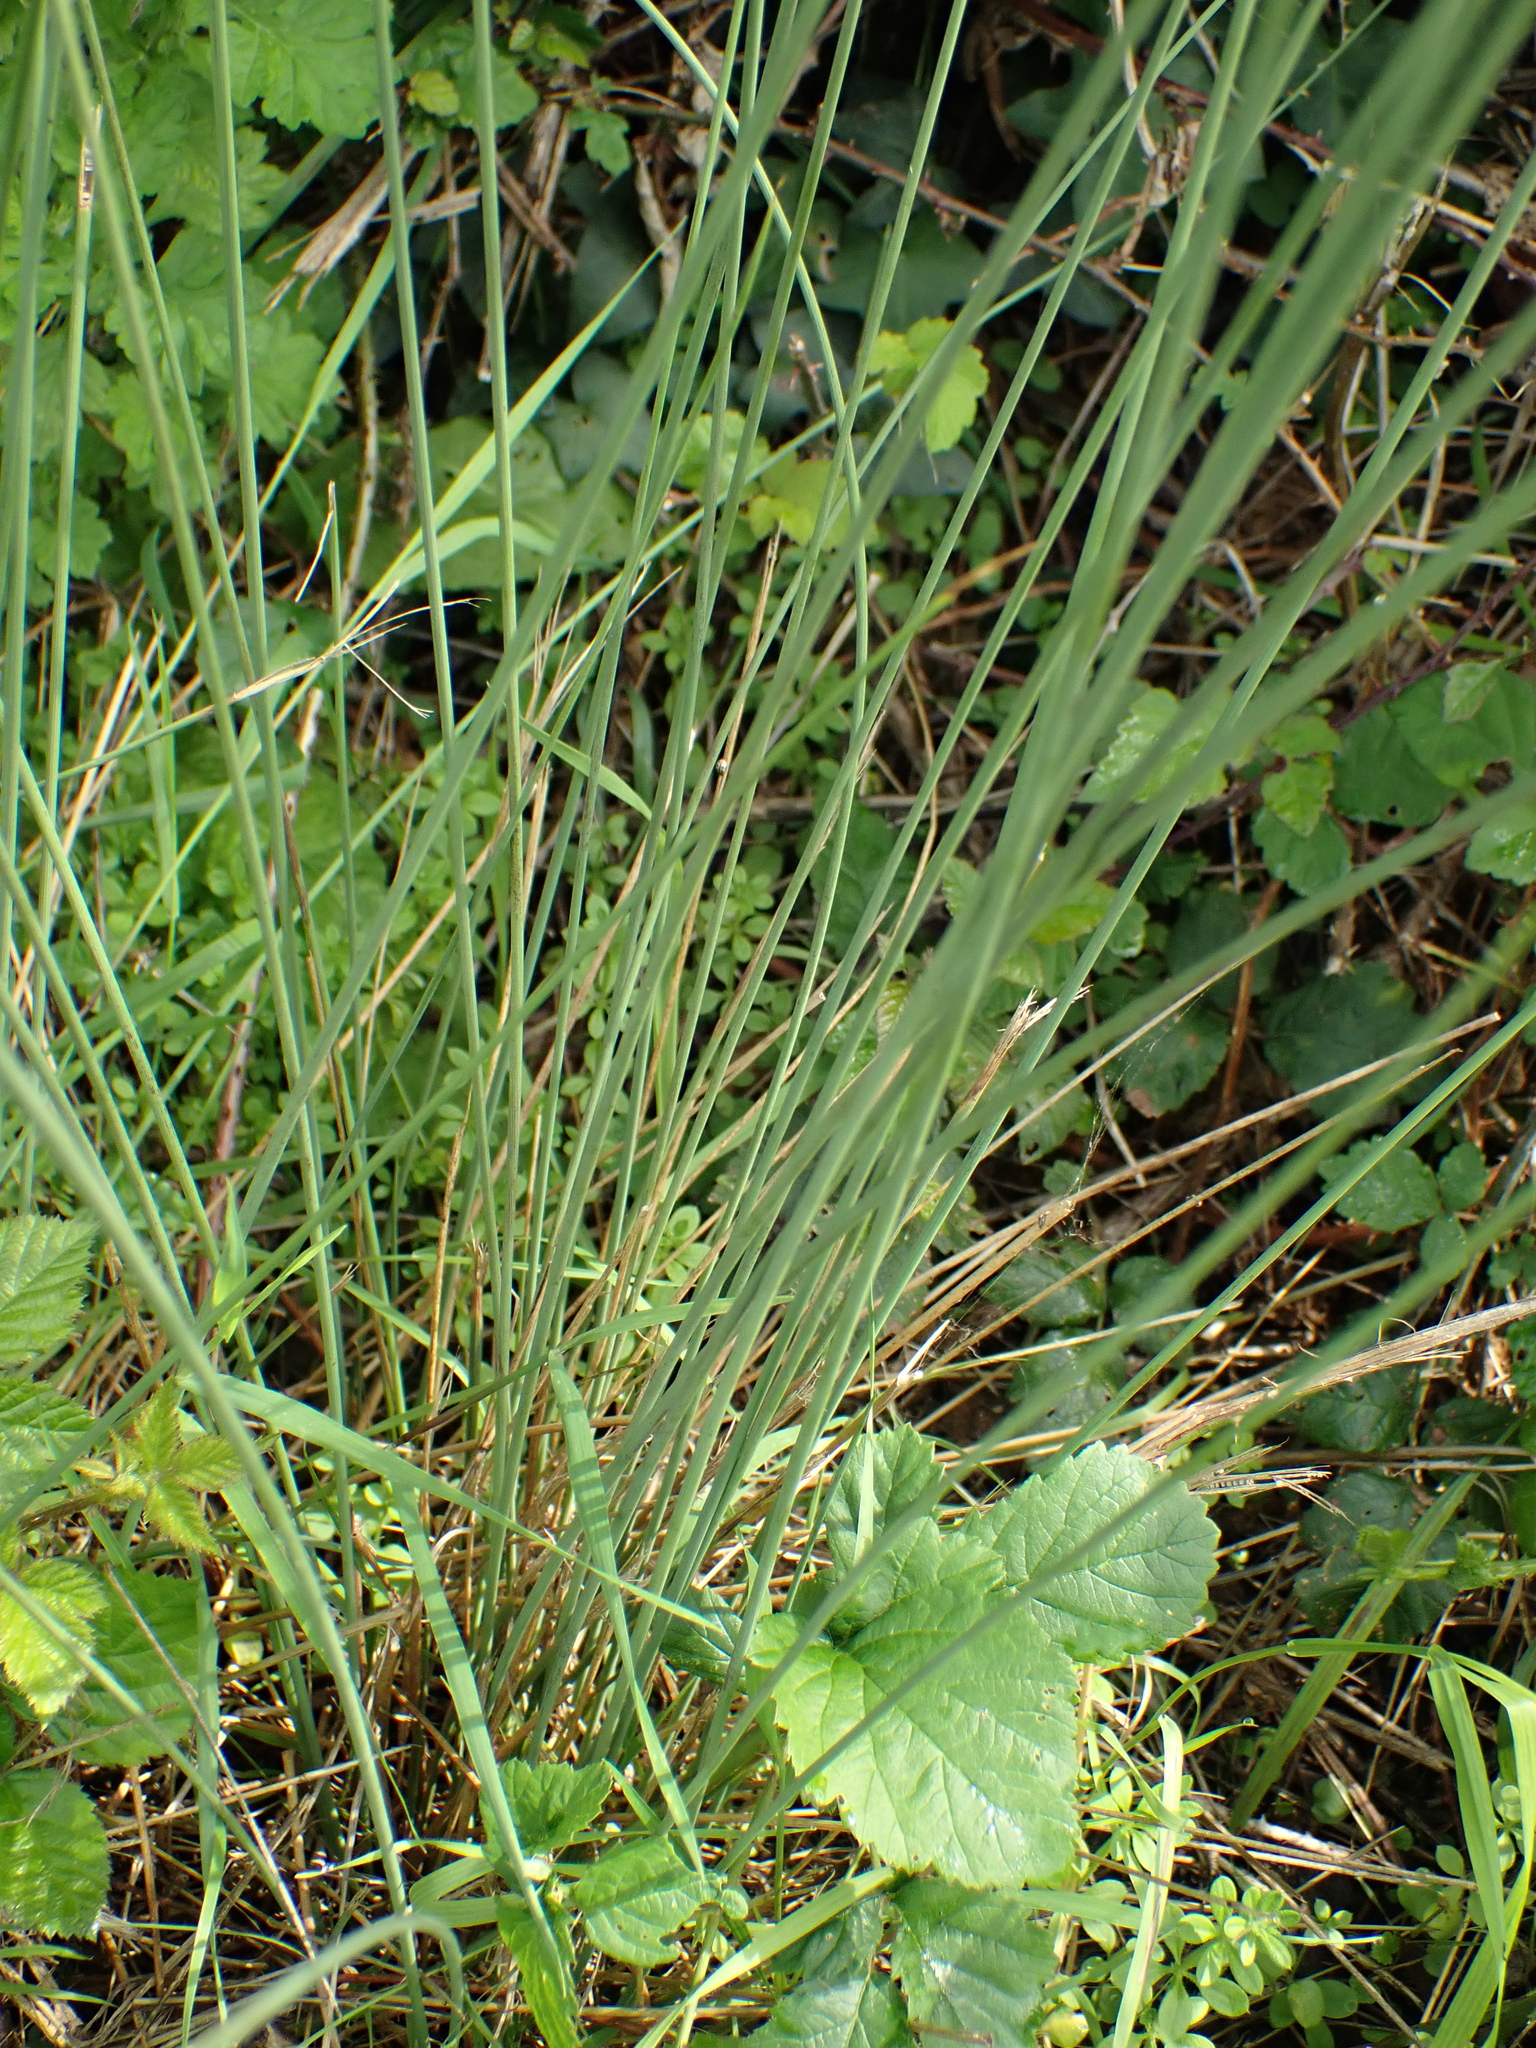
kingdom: Plantae
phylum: Tracheophyta
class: Liliopsida
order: Poales
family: Juncaceae
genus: Juncus
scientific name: Juncus inflexus
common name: Hard rush
